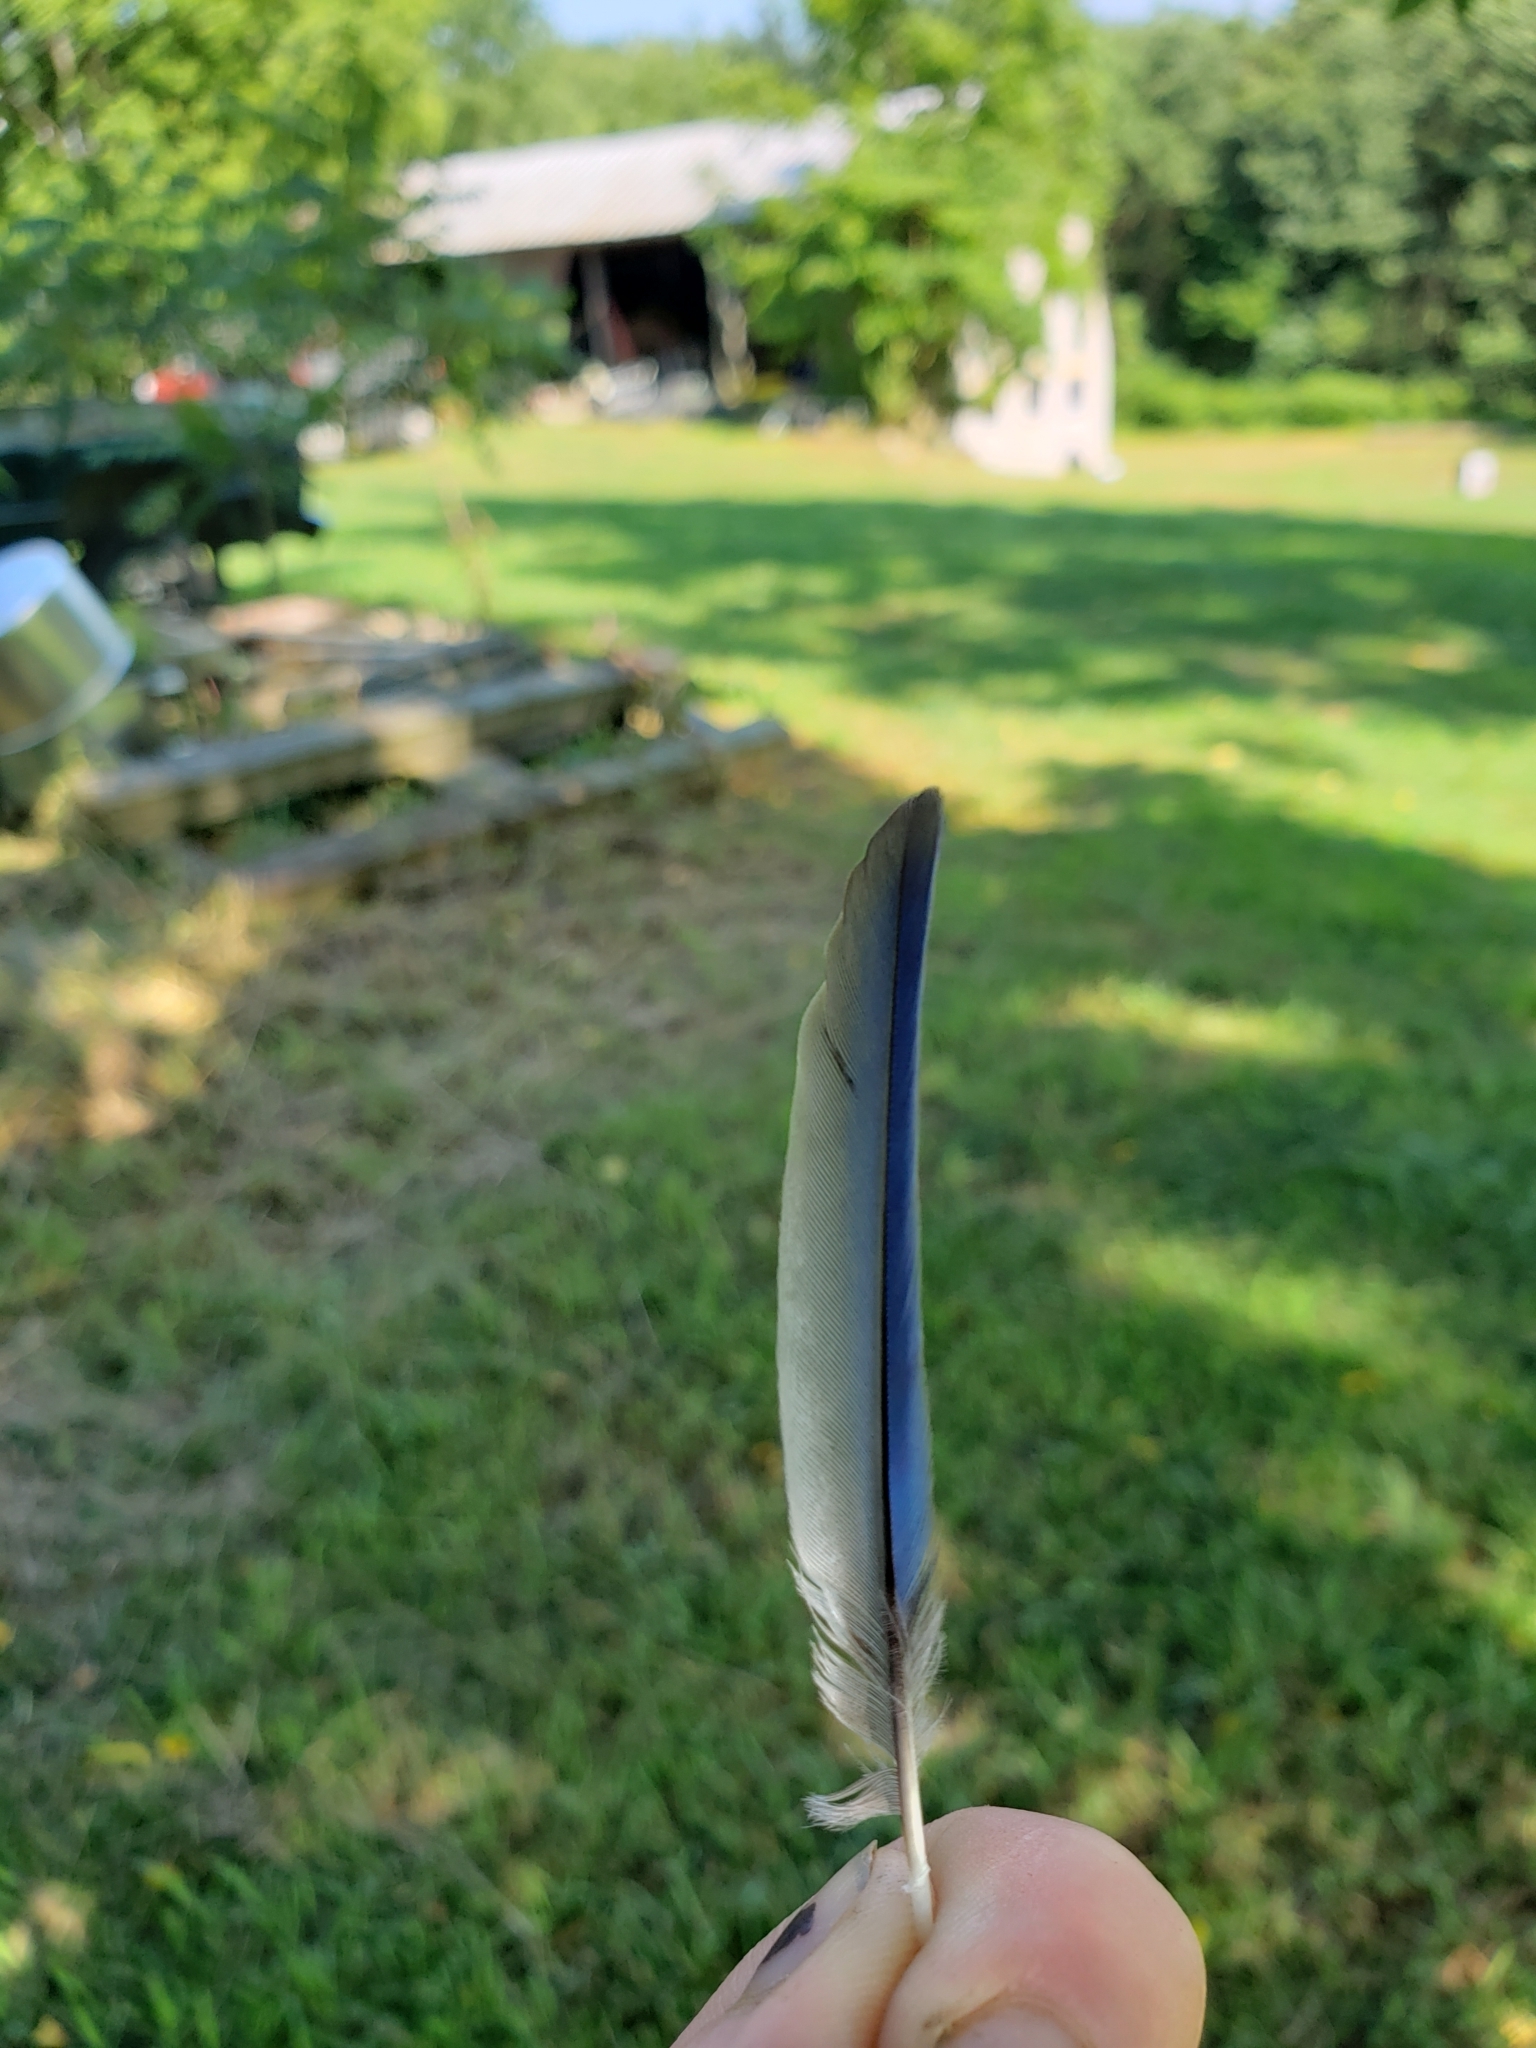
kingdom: Animalia
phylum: Chordata
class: Aves
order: Passeriformes
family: Turdidae
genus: Sialia
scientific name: Sialia sialis
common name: Eastern bluebird
